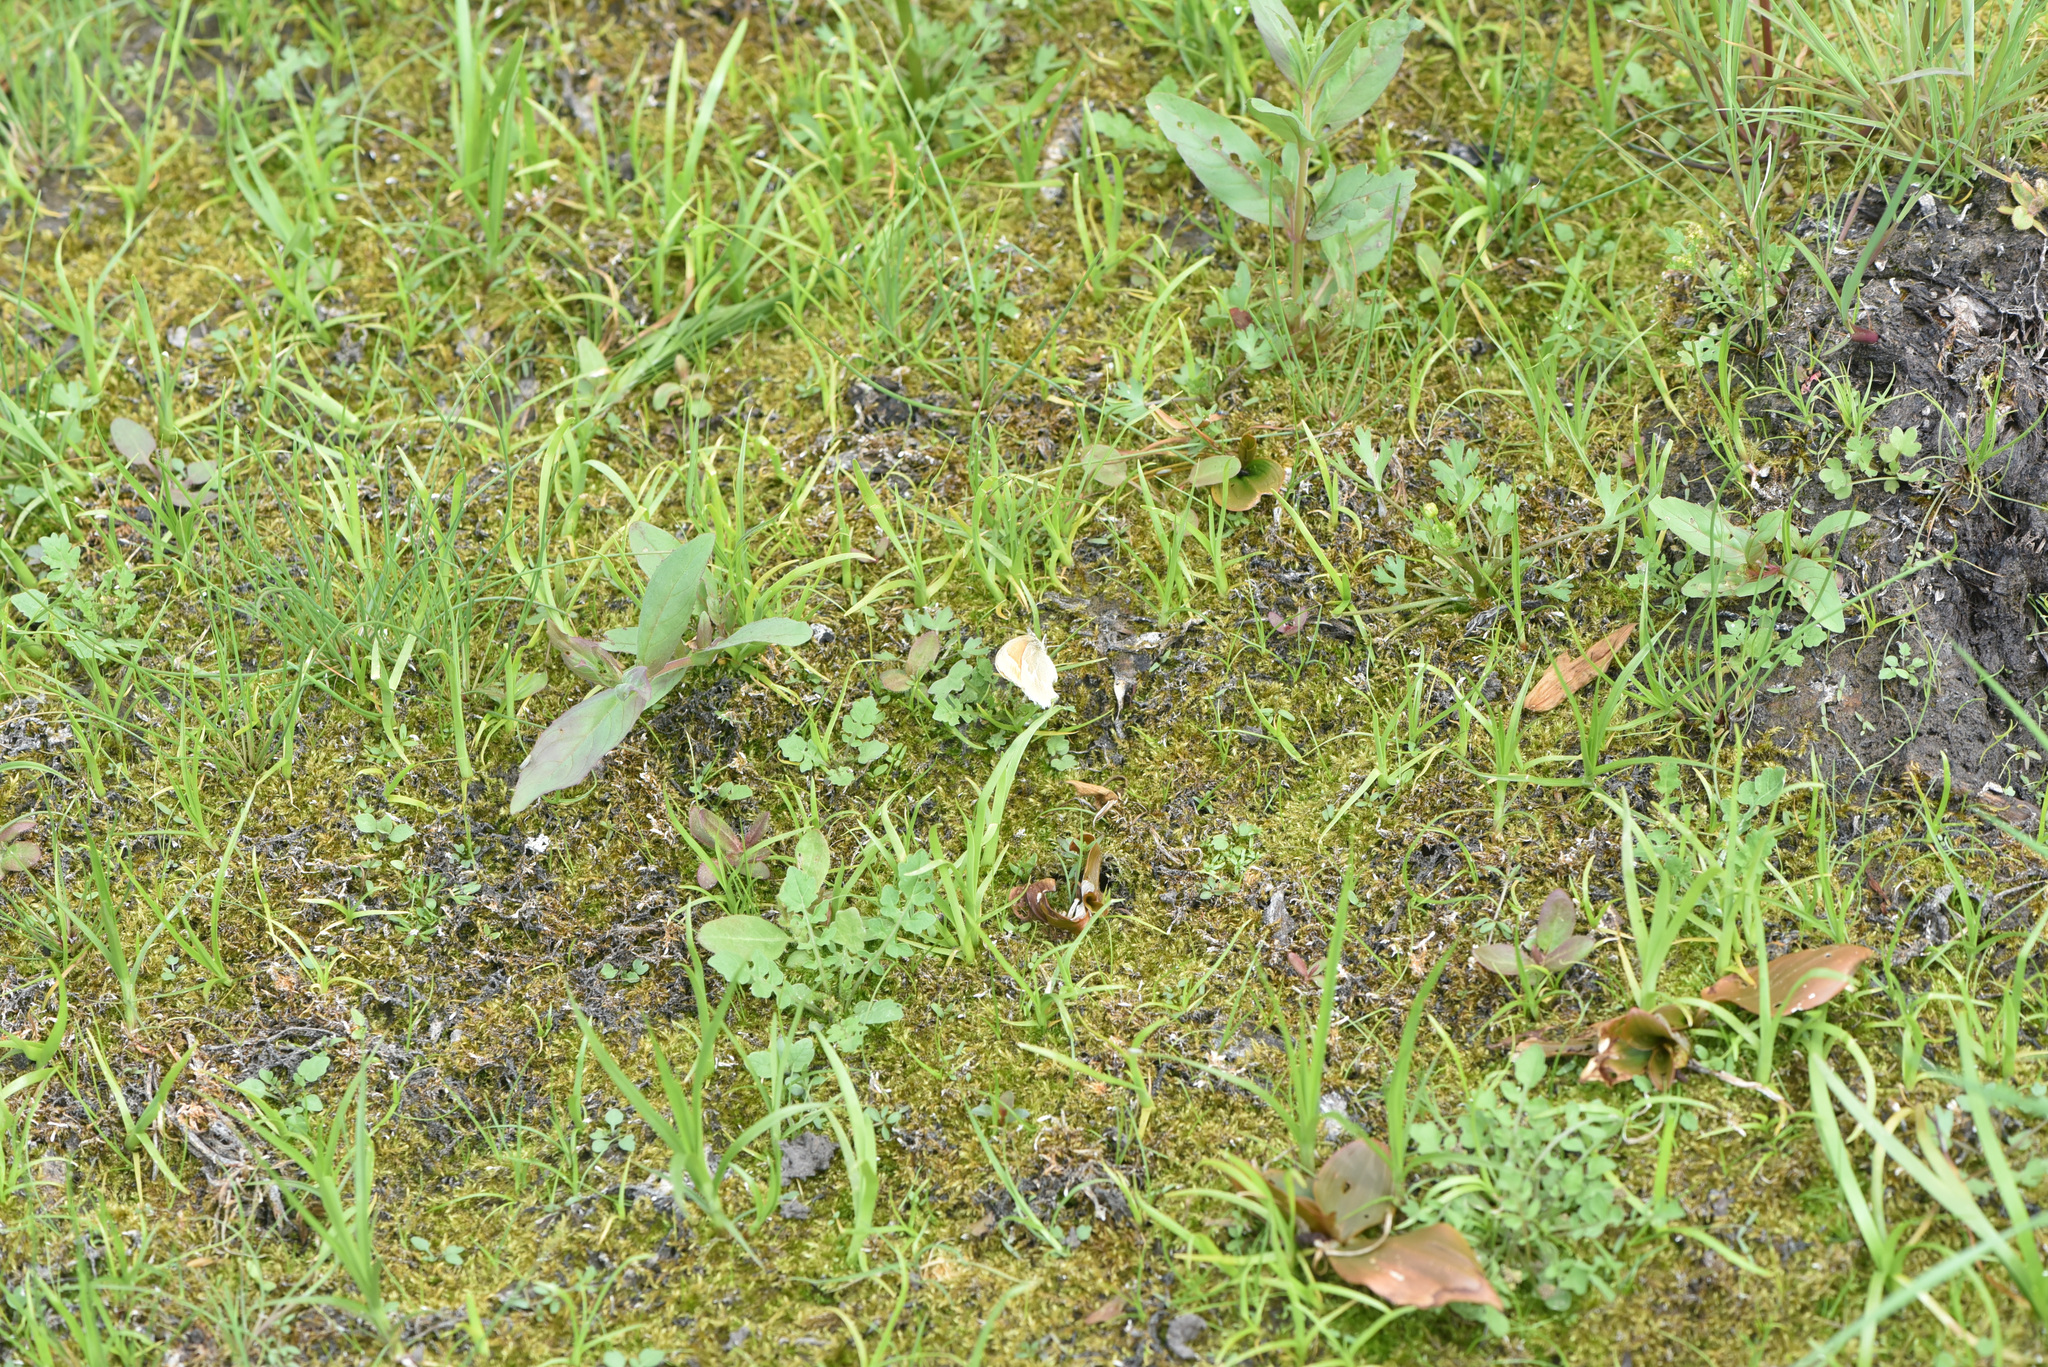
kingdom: Animalia
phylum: Arthropoda
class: Insecta
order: Lepidoptera
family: Nymphalidae
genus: Coenonympha
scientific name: Coenonympha california
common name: Common ringlet
